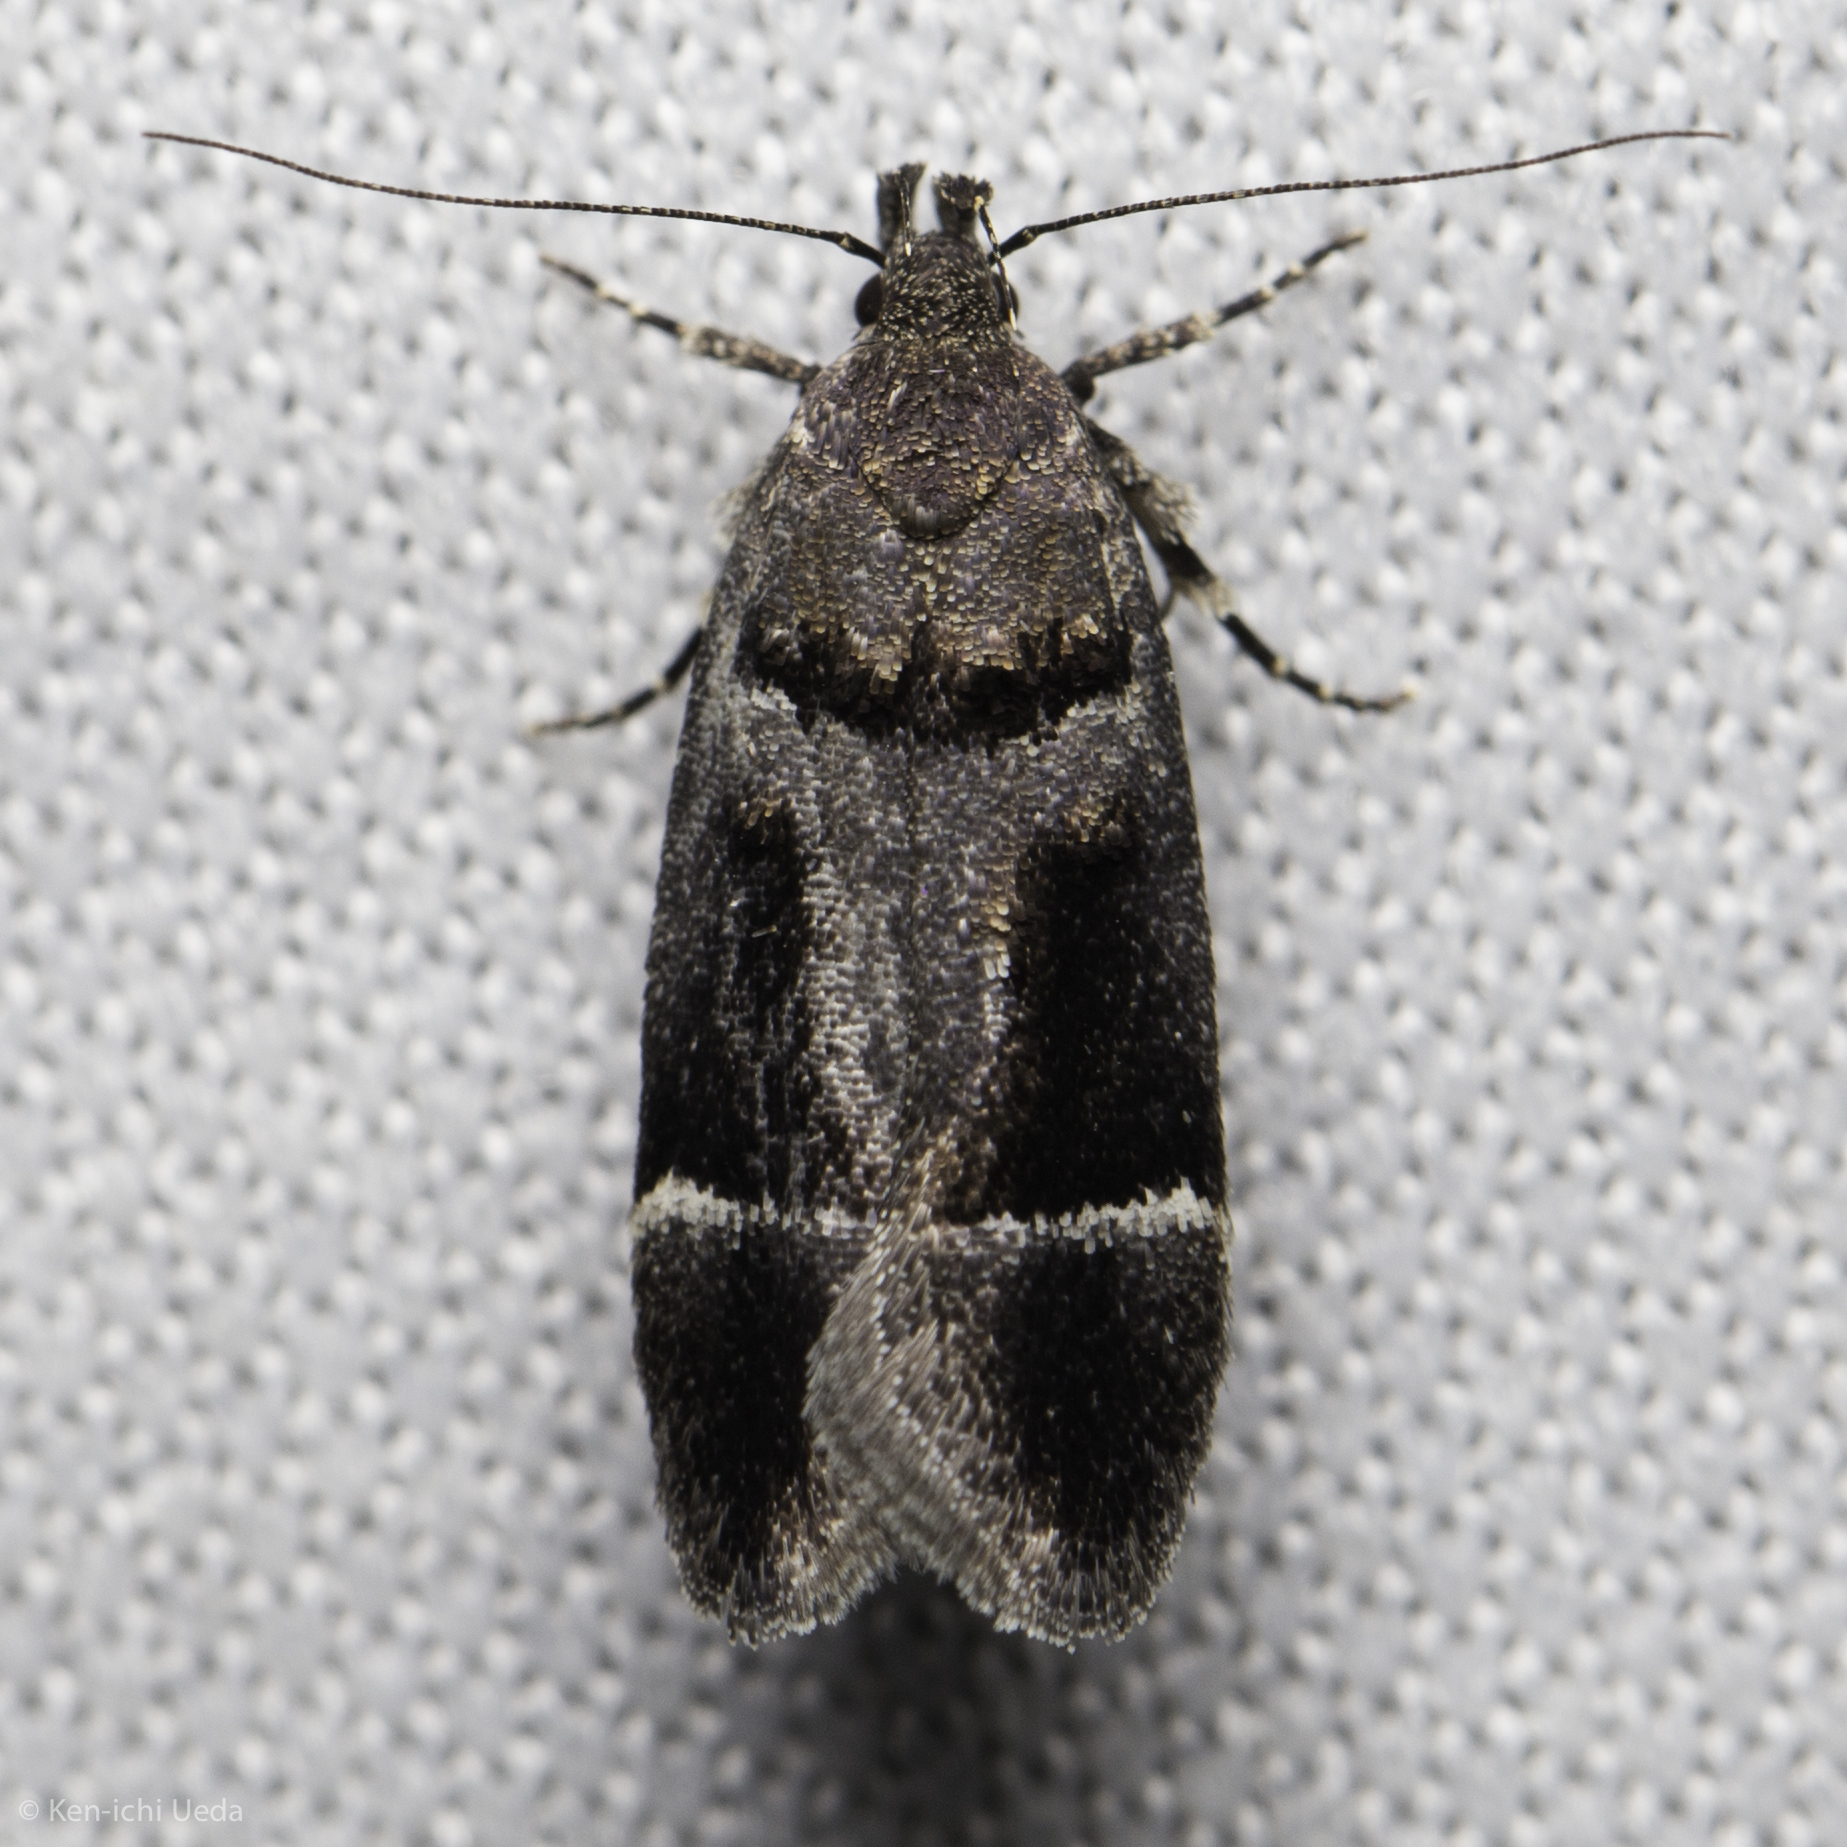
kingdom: Animalia
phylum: Arthropoda
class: Insecta
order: Lepidoptera
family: Gelechiidae
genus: Pseudochelaria
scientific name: Pseudochelaria manzanitae
